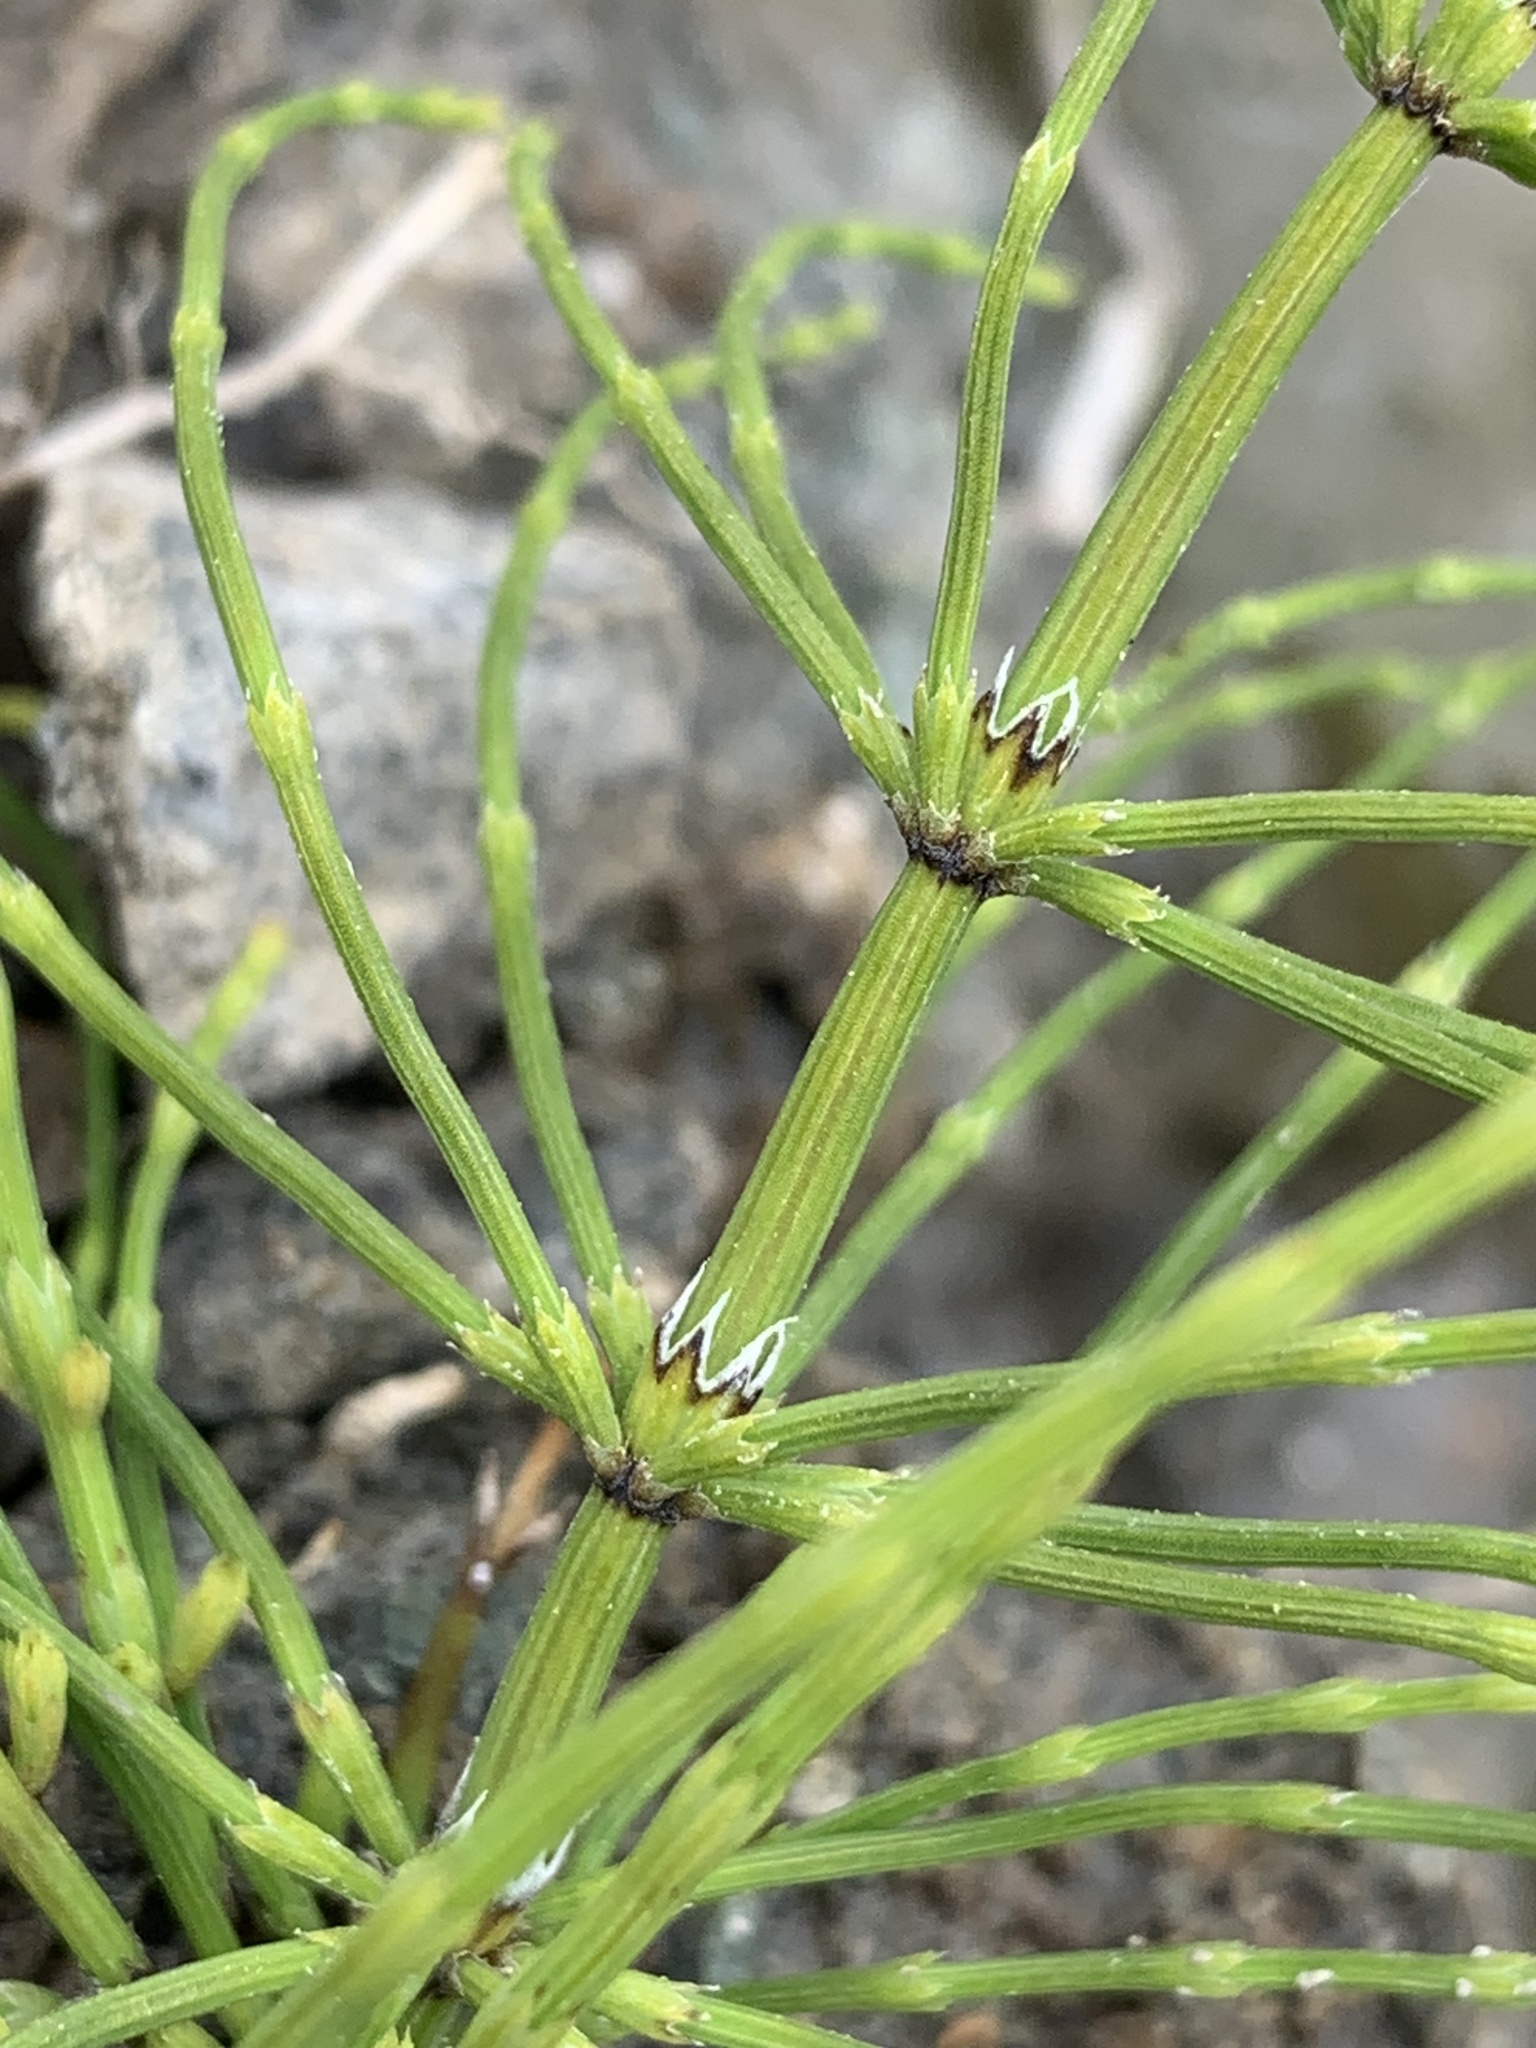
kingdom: Plantae
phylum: Tracheophyta
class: Polypodiopsida
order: Equisetales
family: Equisetaceae
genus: Equisetum
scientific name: Equisetum arvense
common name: Field horsetail
